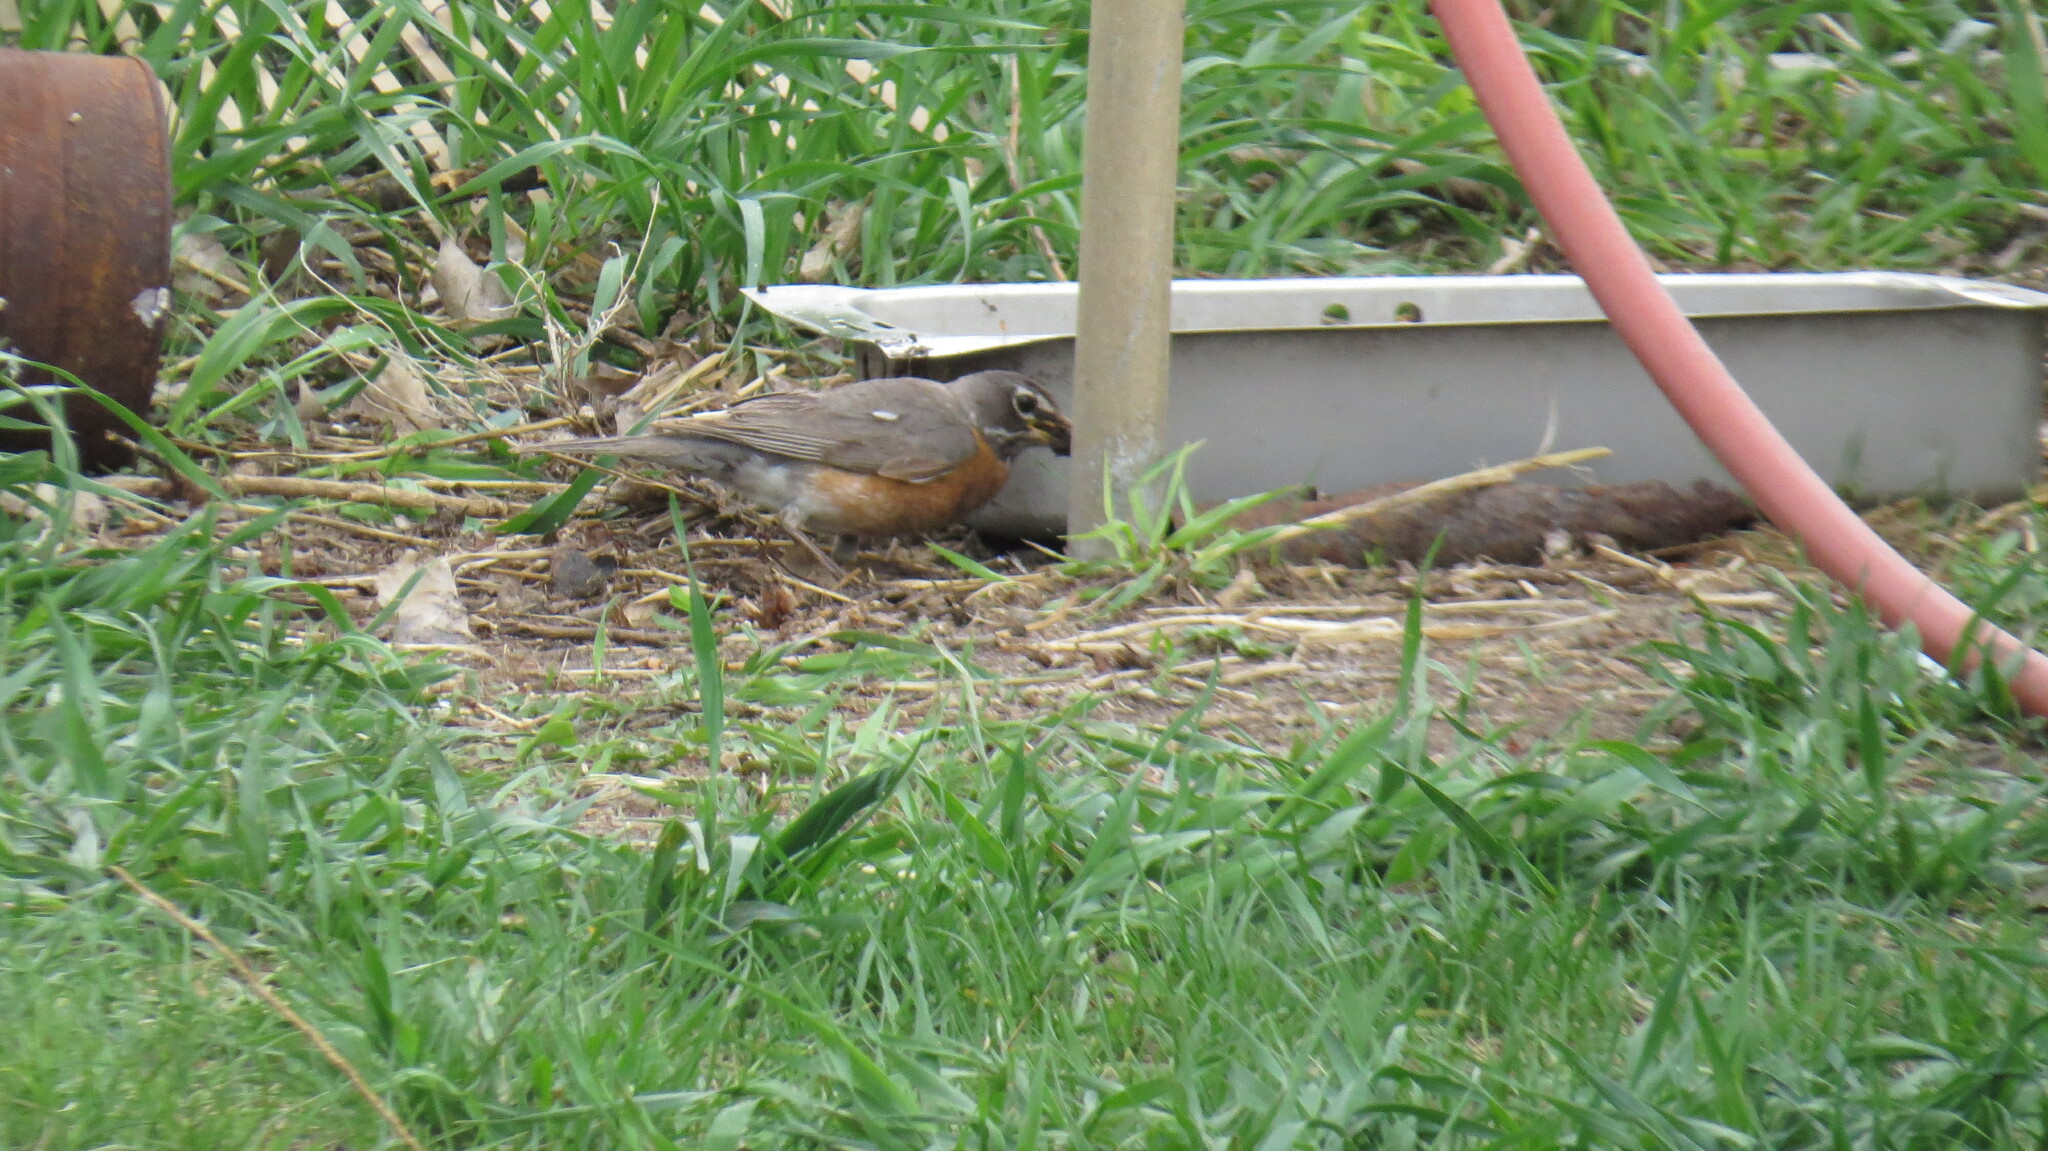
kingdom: Animalia
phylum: Chordata
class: Aves
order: Passeriformes
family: Turdidae
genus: Turdus
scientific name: Turdus migratorius
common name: American robin
